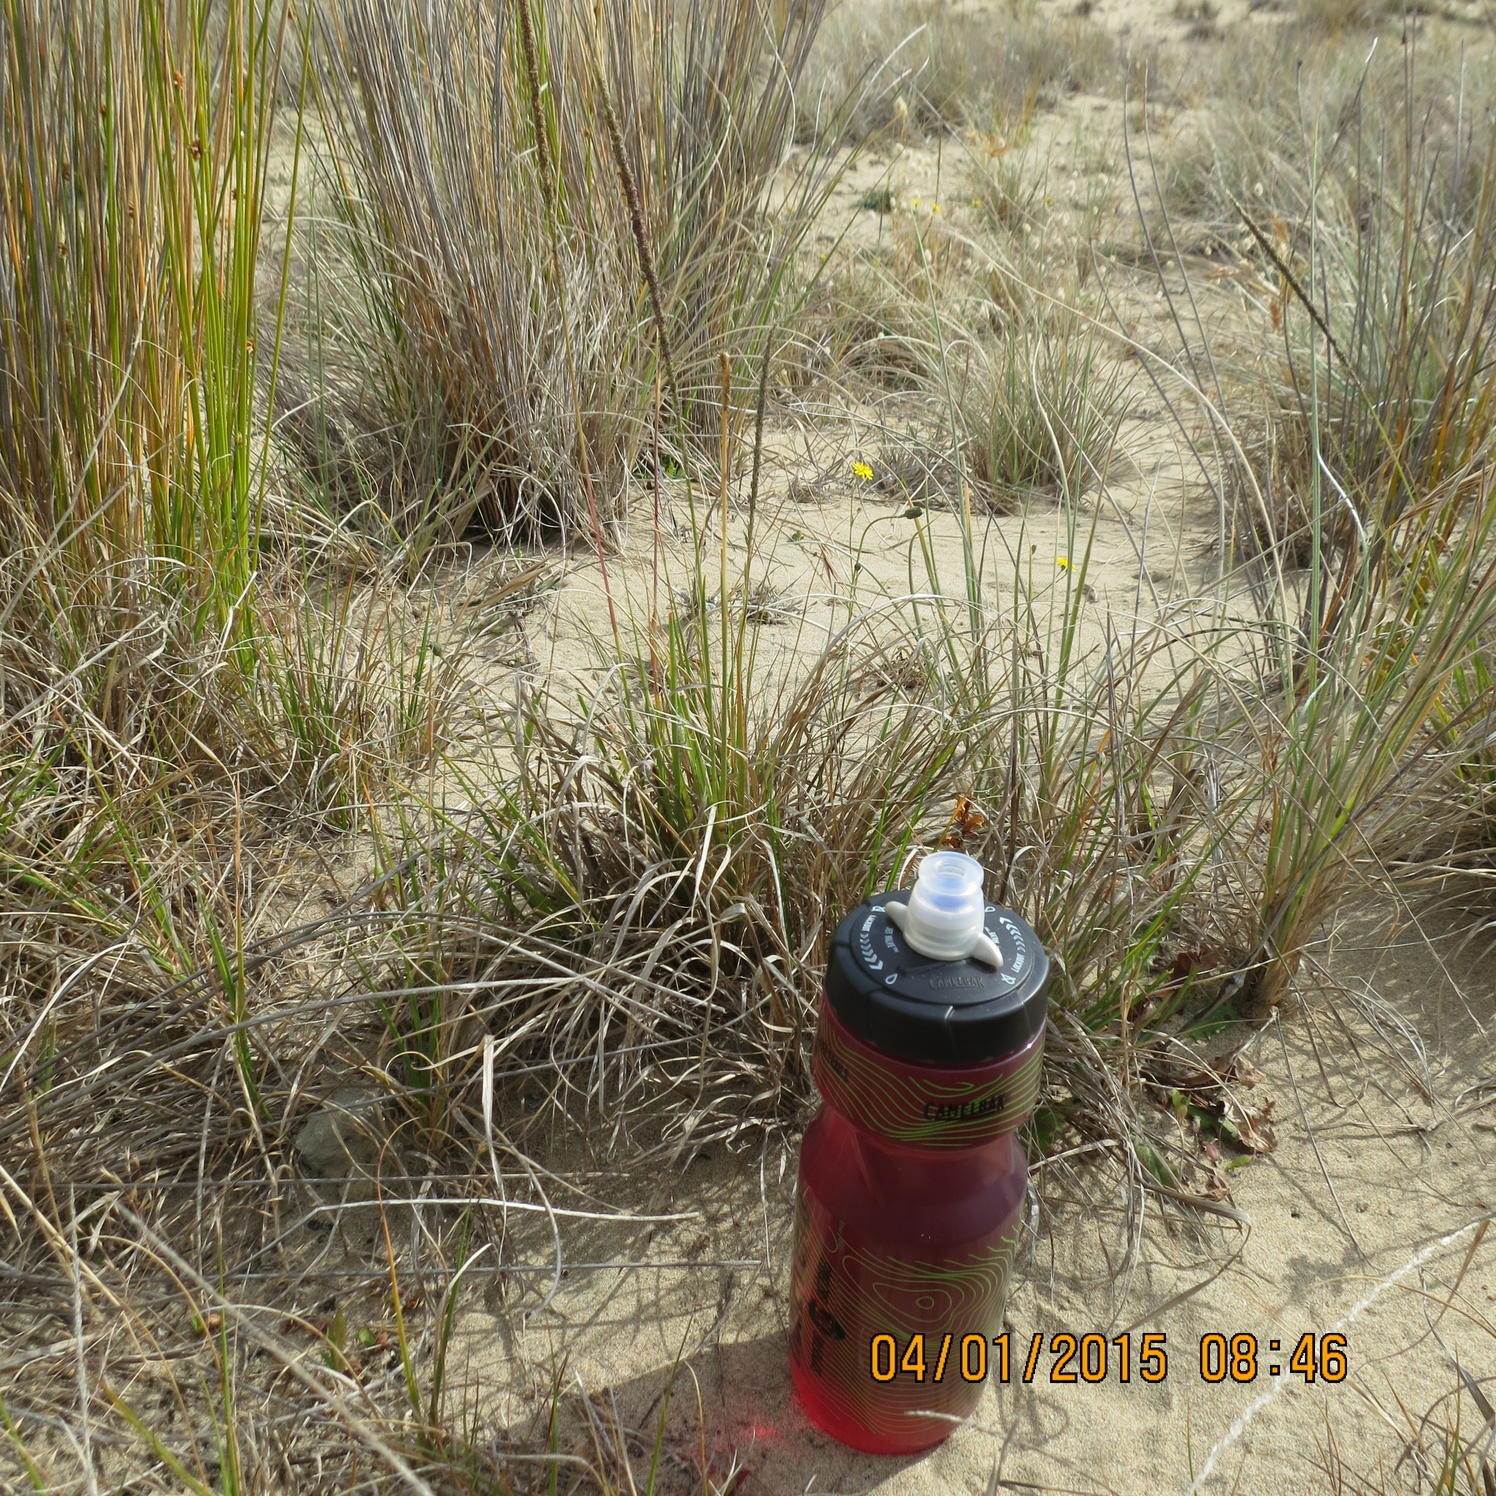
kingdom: Plantae
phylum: Tracheophyta
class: Liliopsida
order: Poales
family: Poaceae
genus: Sporobolus
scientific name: Sporobolus africanus
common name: African dropseed
